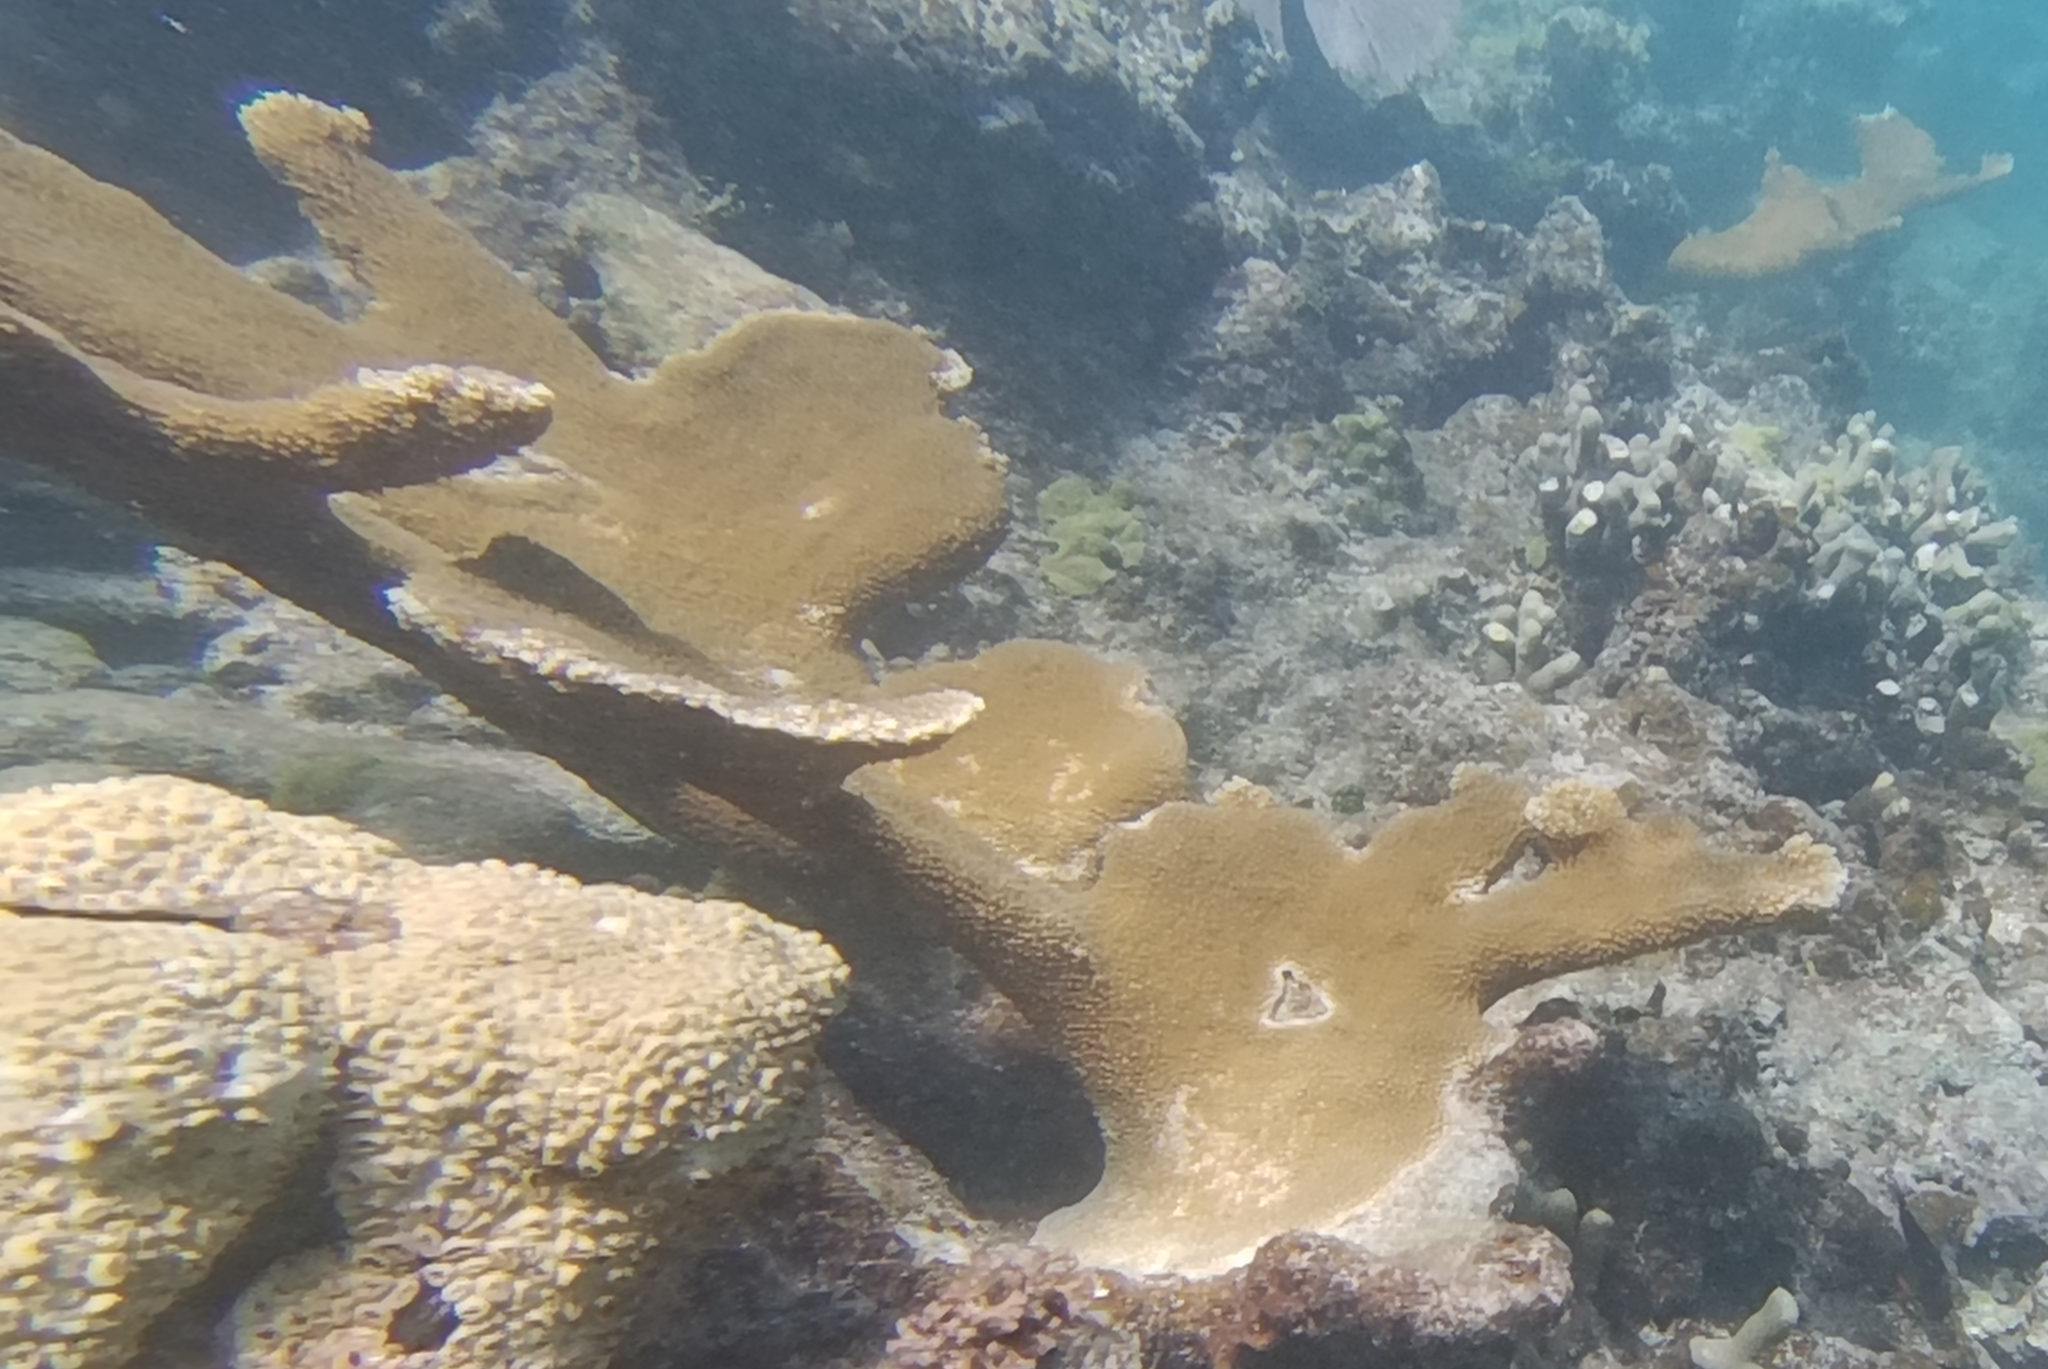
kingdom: Animalia
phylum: Cnidaria
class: Anthozoa
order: Scleractinia
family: Acroporidae
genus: Acropora
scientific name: Acropora palmata
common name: Elkhorn coral
